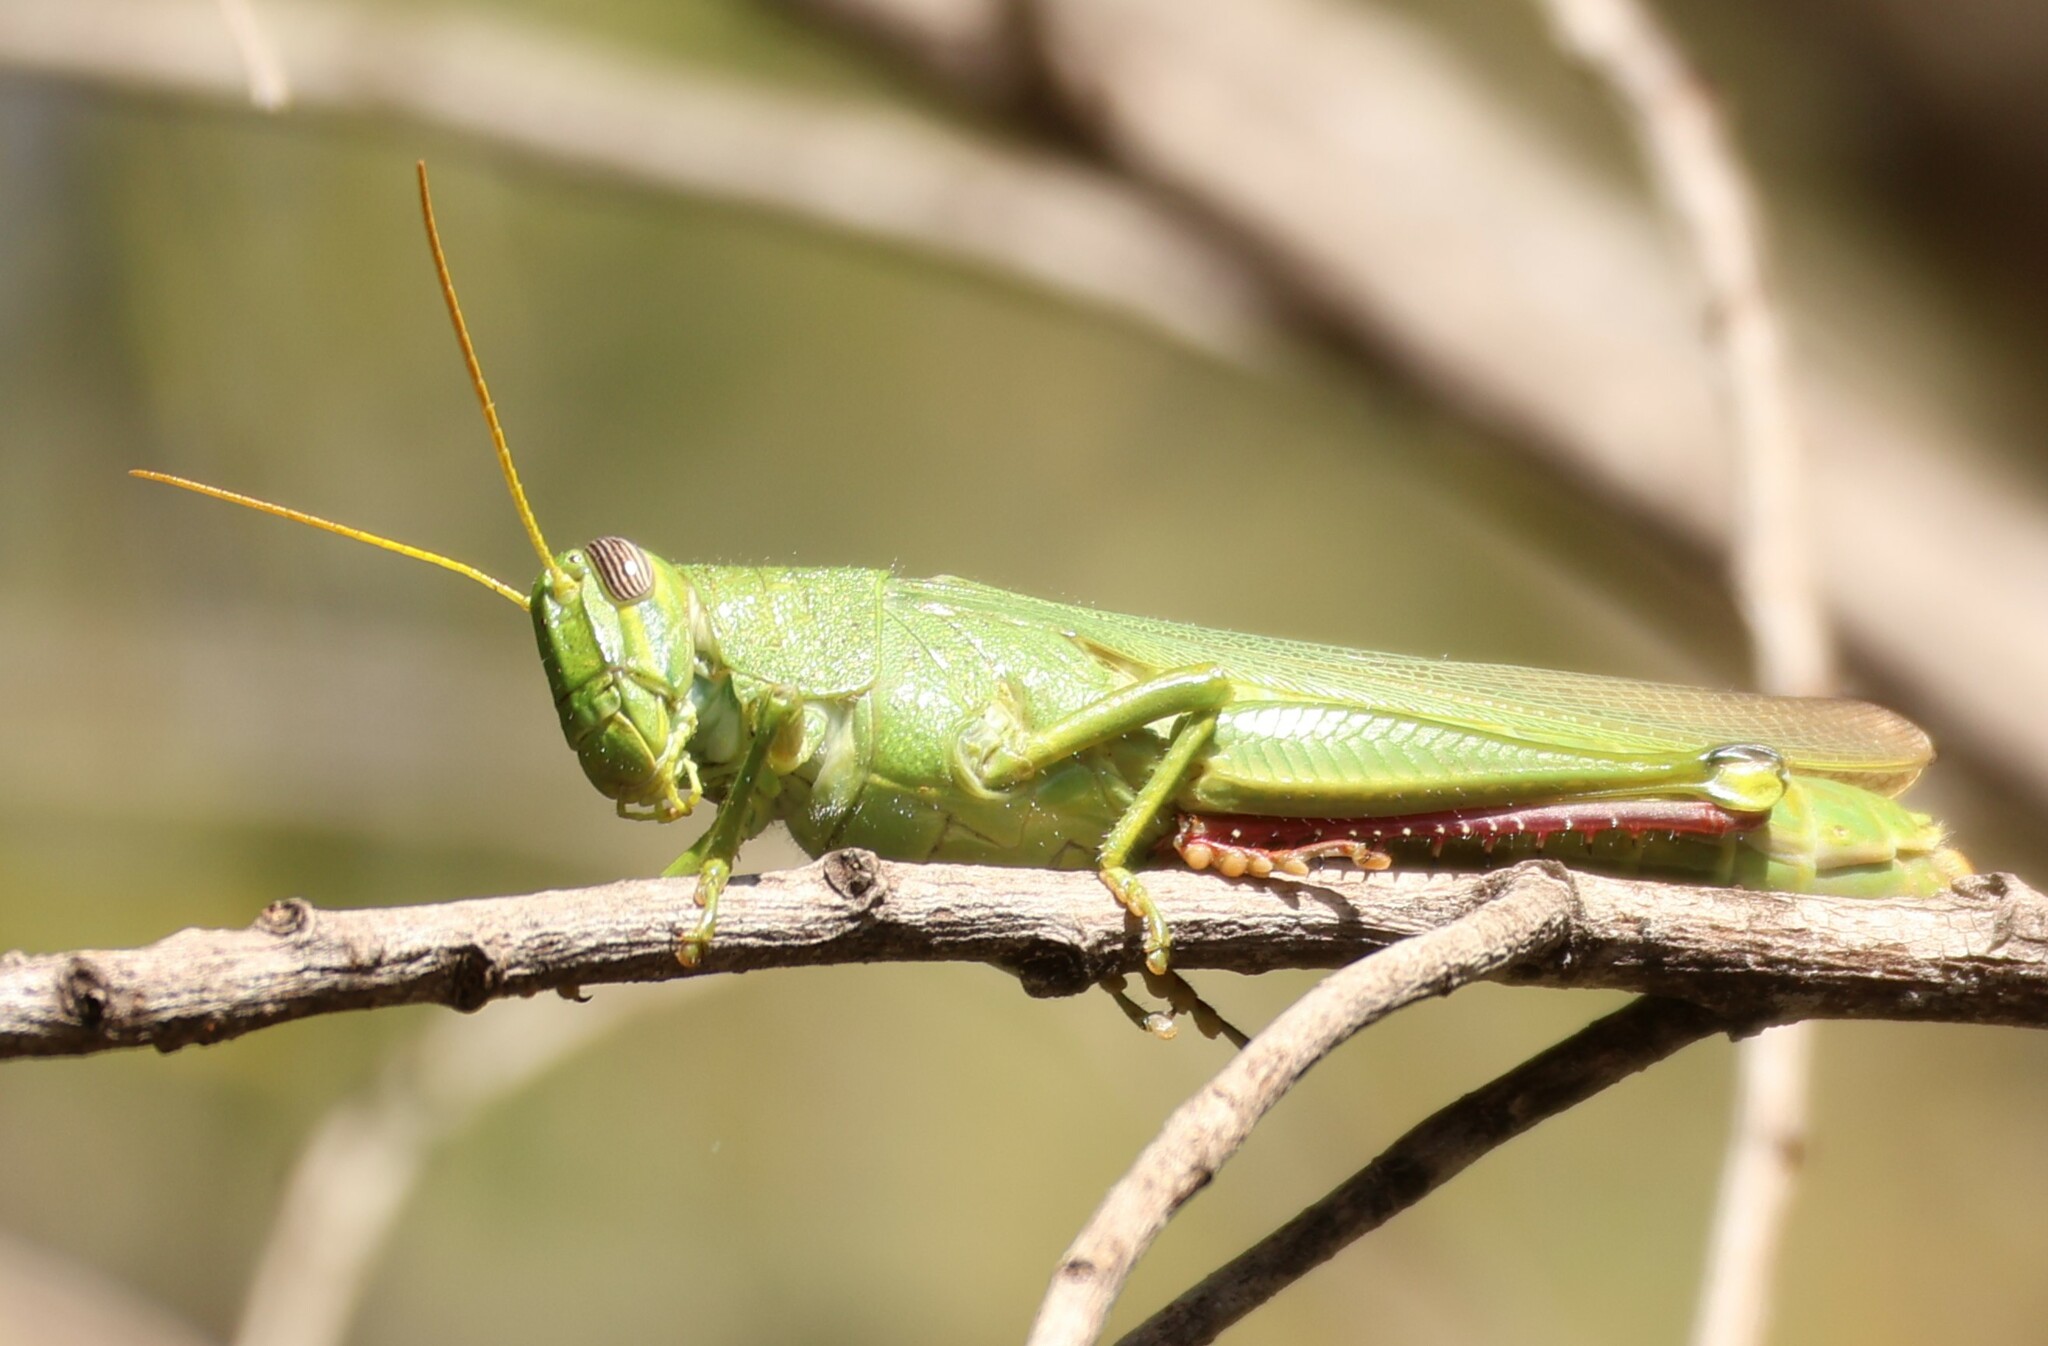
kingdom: Animalia
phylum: Arthropoda
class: Insecta
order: Orthoptera
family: Acrididae
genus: Schistocerca
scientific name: Schistocerca shoshone
